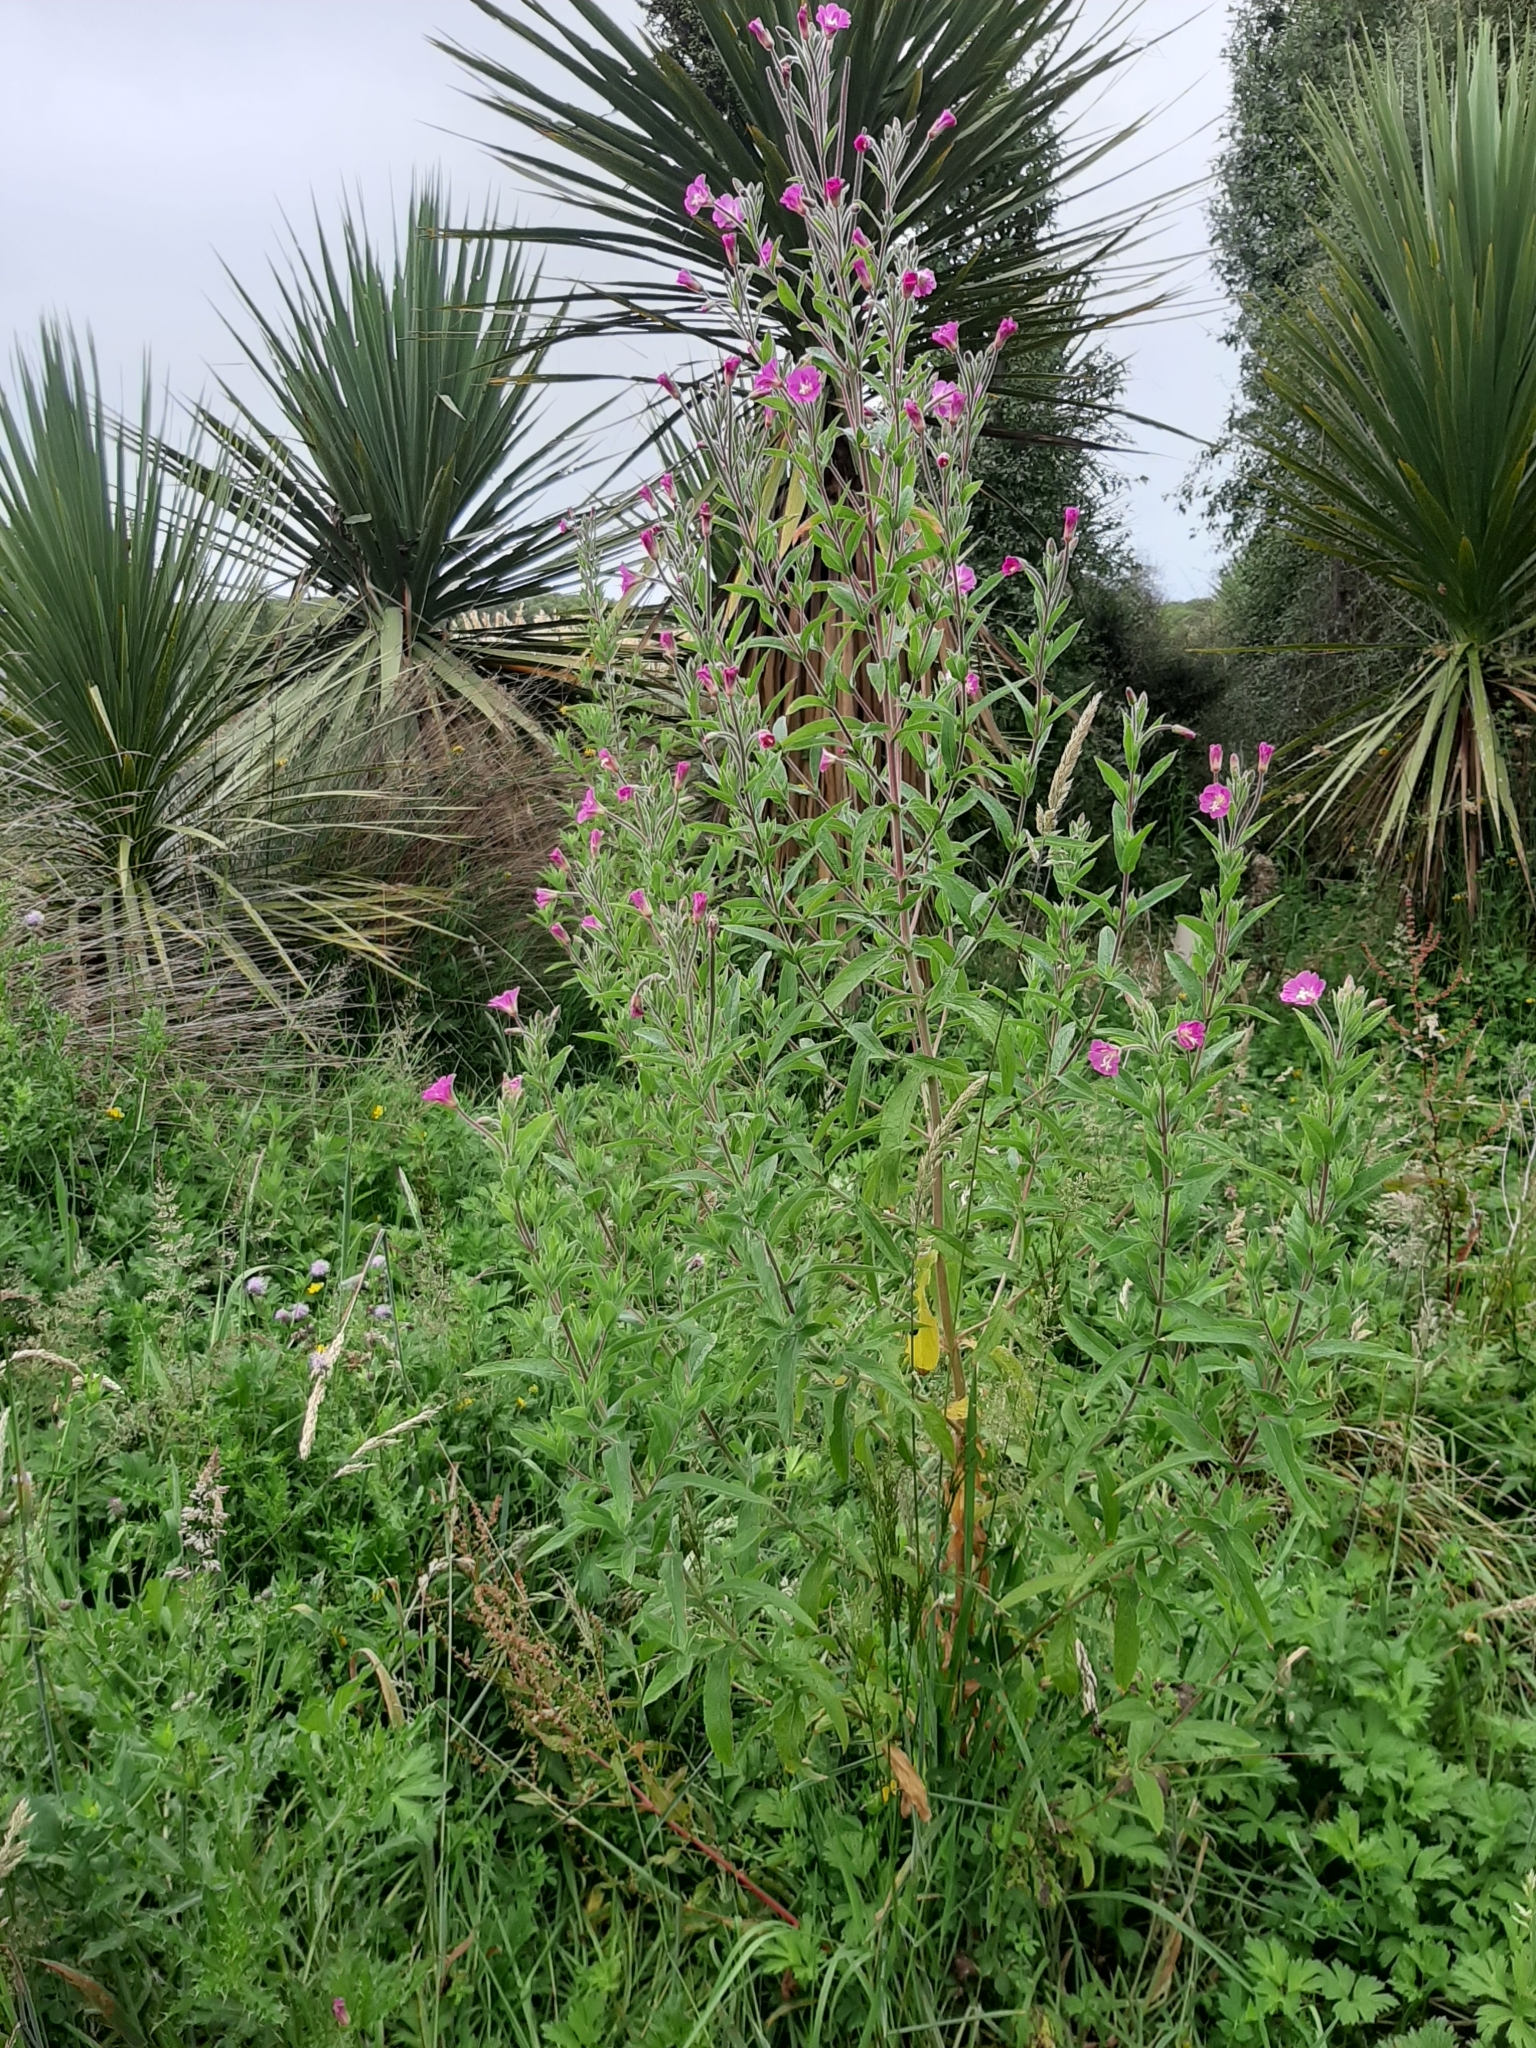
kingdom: Plantae
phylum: Tracheophyta
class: Magnoliopsida
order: Myrtales
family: Onagraceae
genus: Epilobium
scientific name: Epilobium hirsutum
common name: Great willowherb
